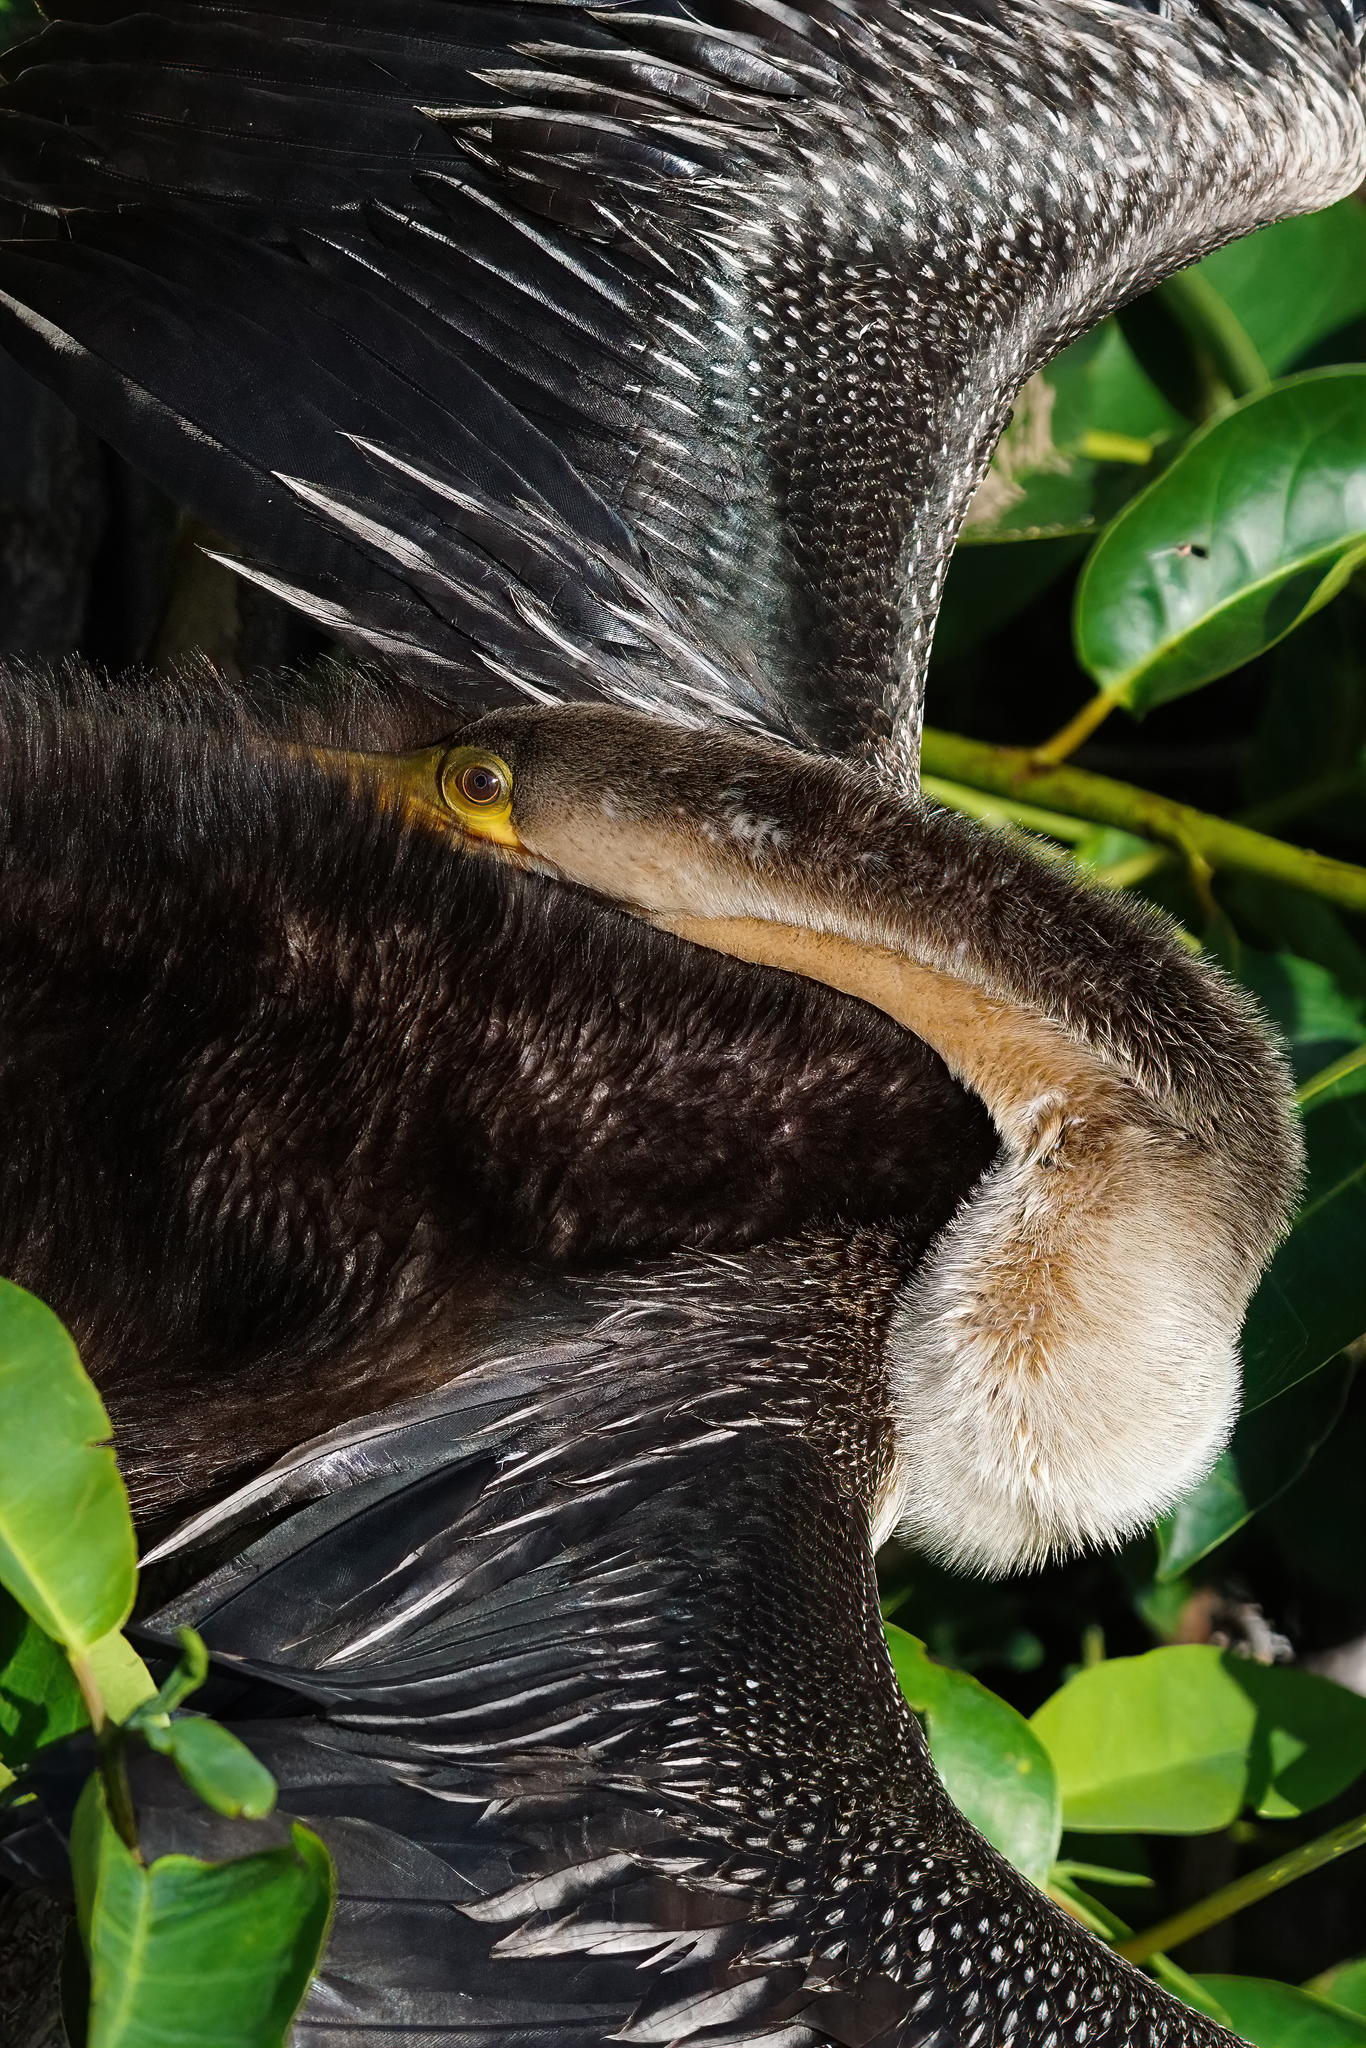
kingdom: Animalia
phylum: Chordata
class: Aves
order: Suliformes
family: Anhingidae
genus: Anhinga
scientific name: Anhinga anhinga
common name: Anhinga
